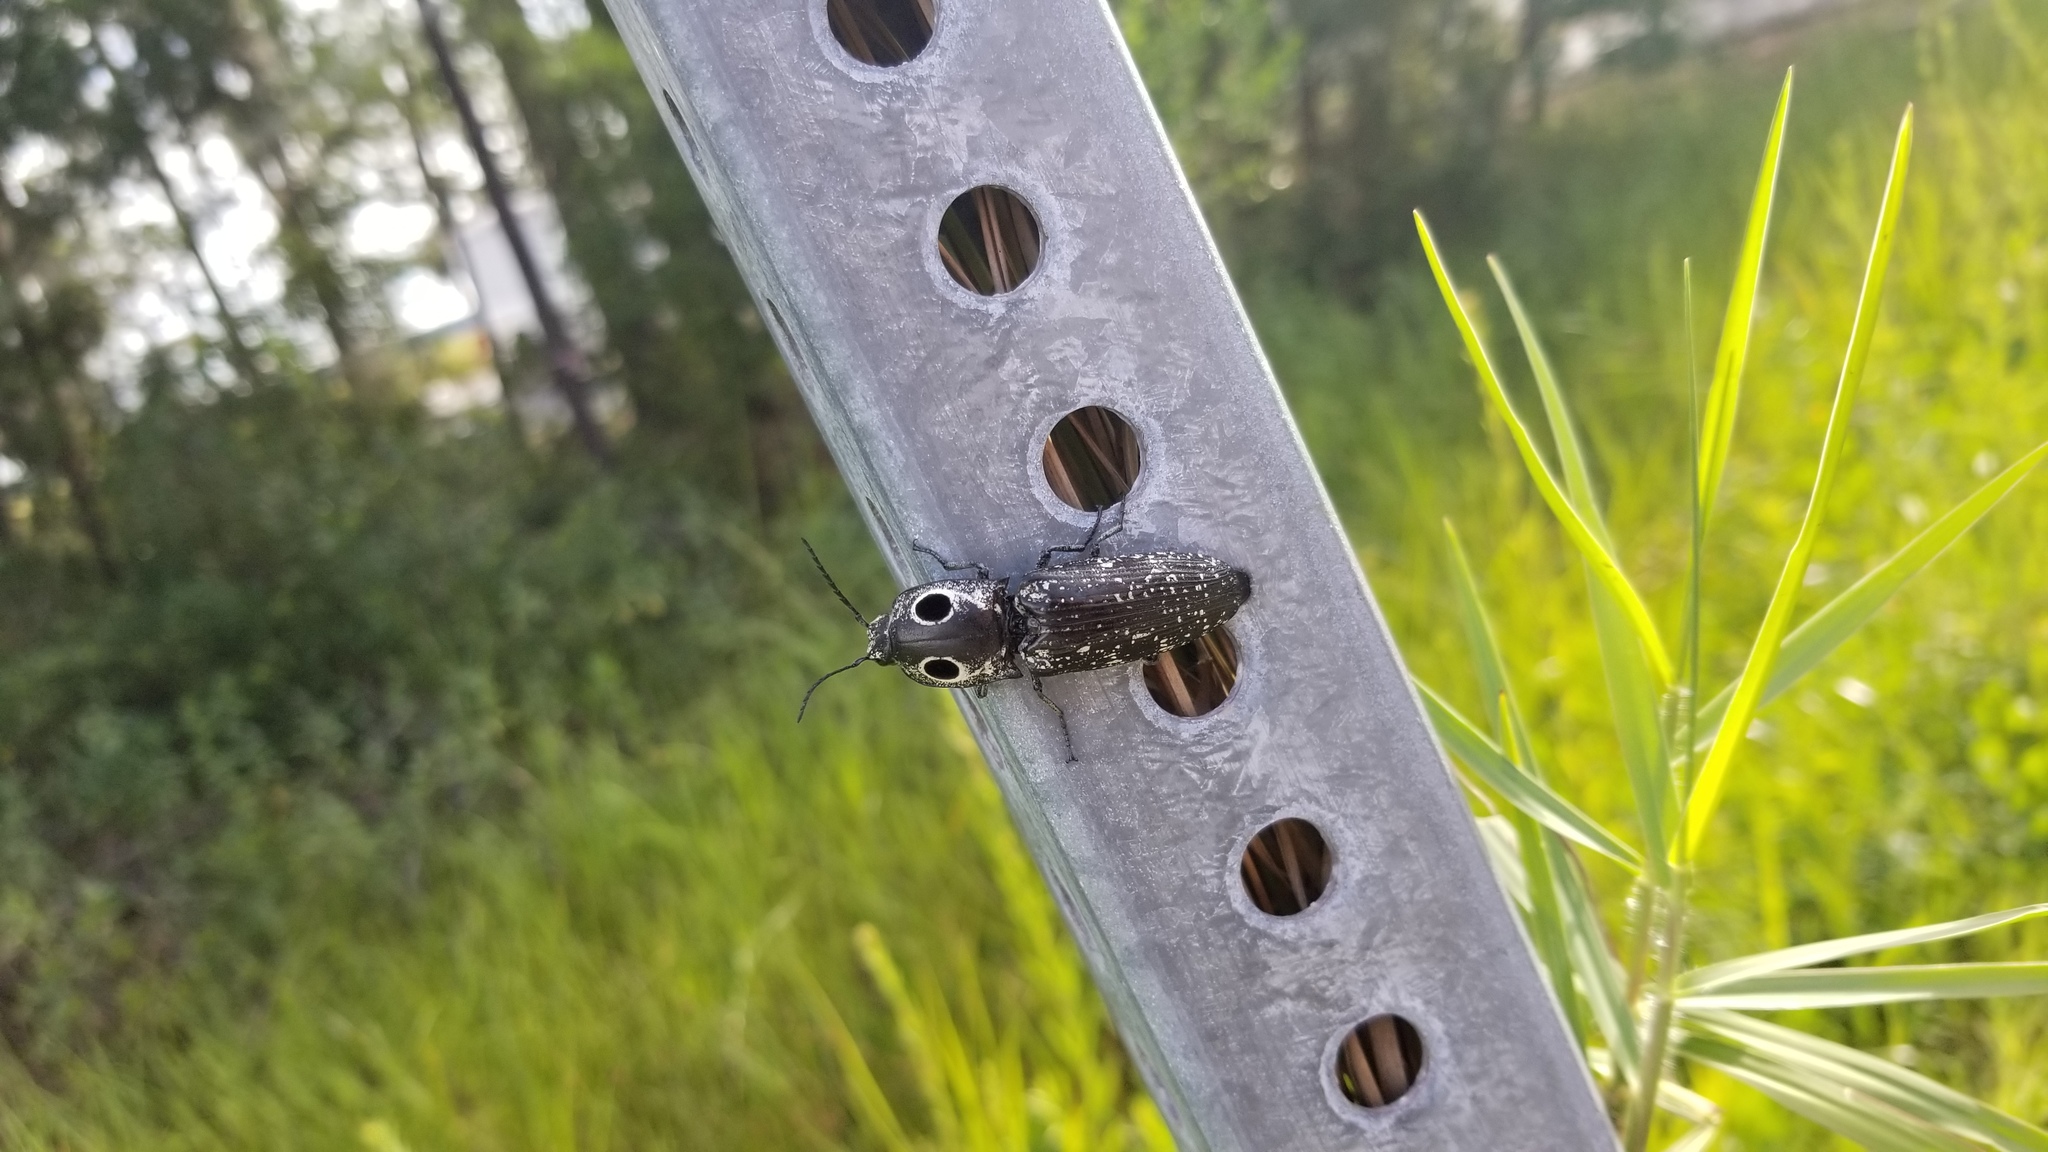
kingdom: Animalia
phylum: Arthropoda
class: Insecta
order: Coleoptera
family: Elateridae
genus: Alaus
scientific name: Alaus oculatus
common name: Eastern eyed click beetle
